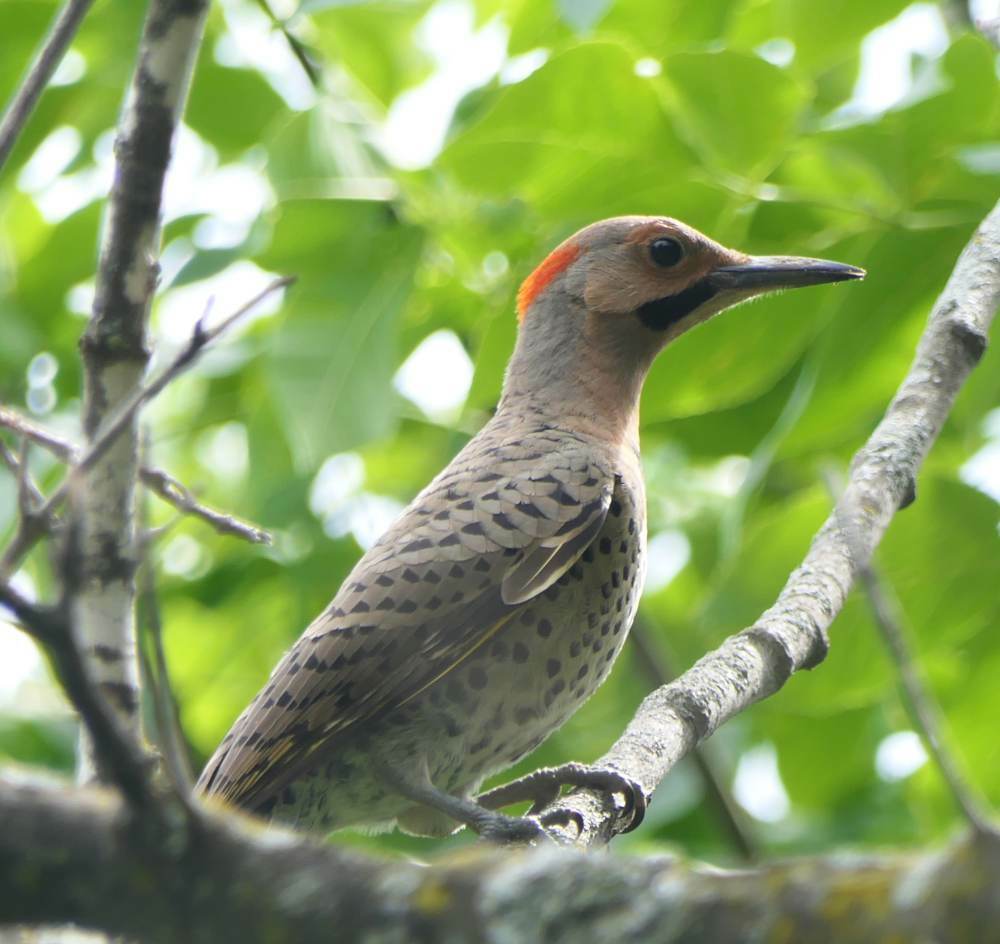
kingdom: Animalia
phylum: Chordata
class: Aves
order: Piciformes
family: Picidae
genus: Colaptes
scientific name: Colaptes auratus
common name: Northern flicker
